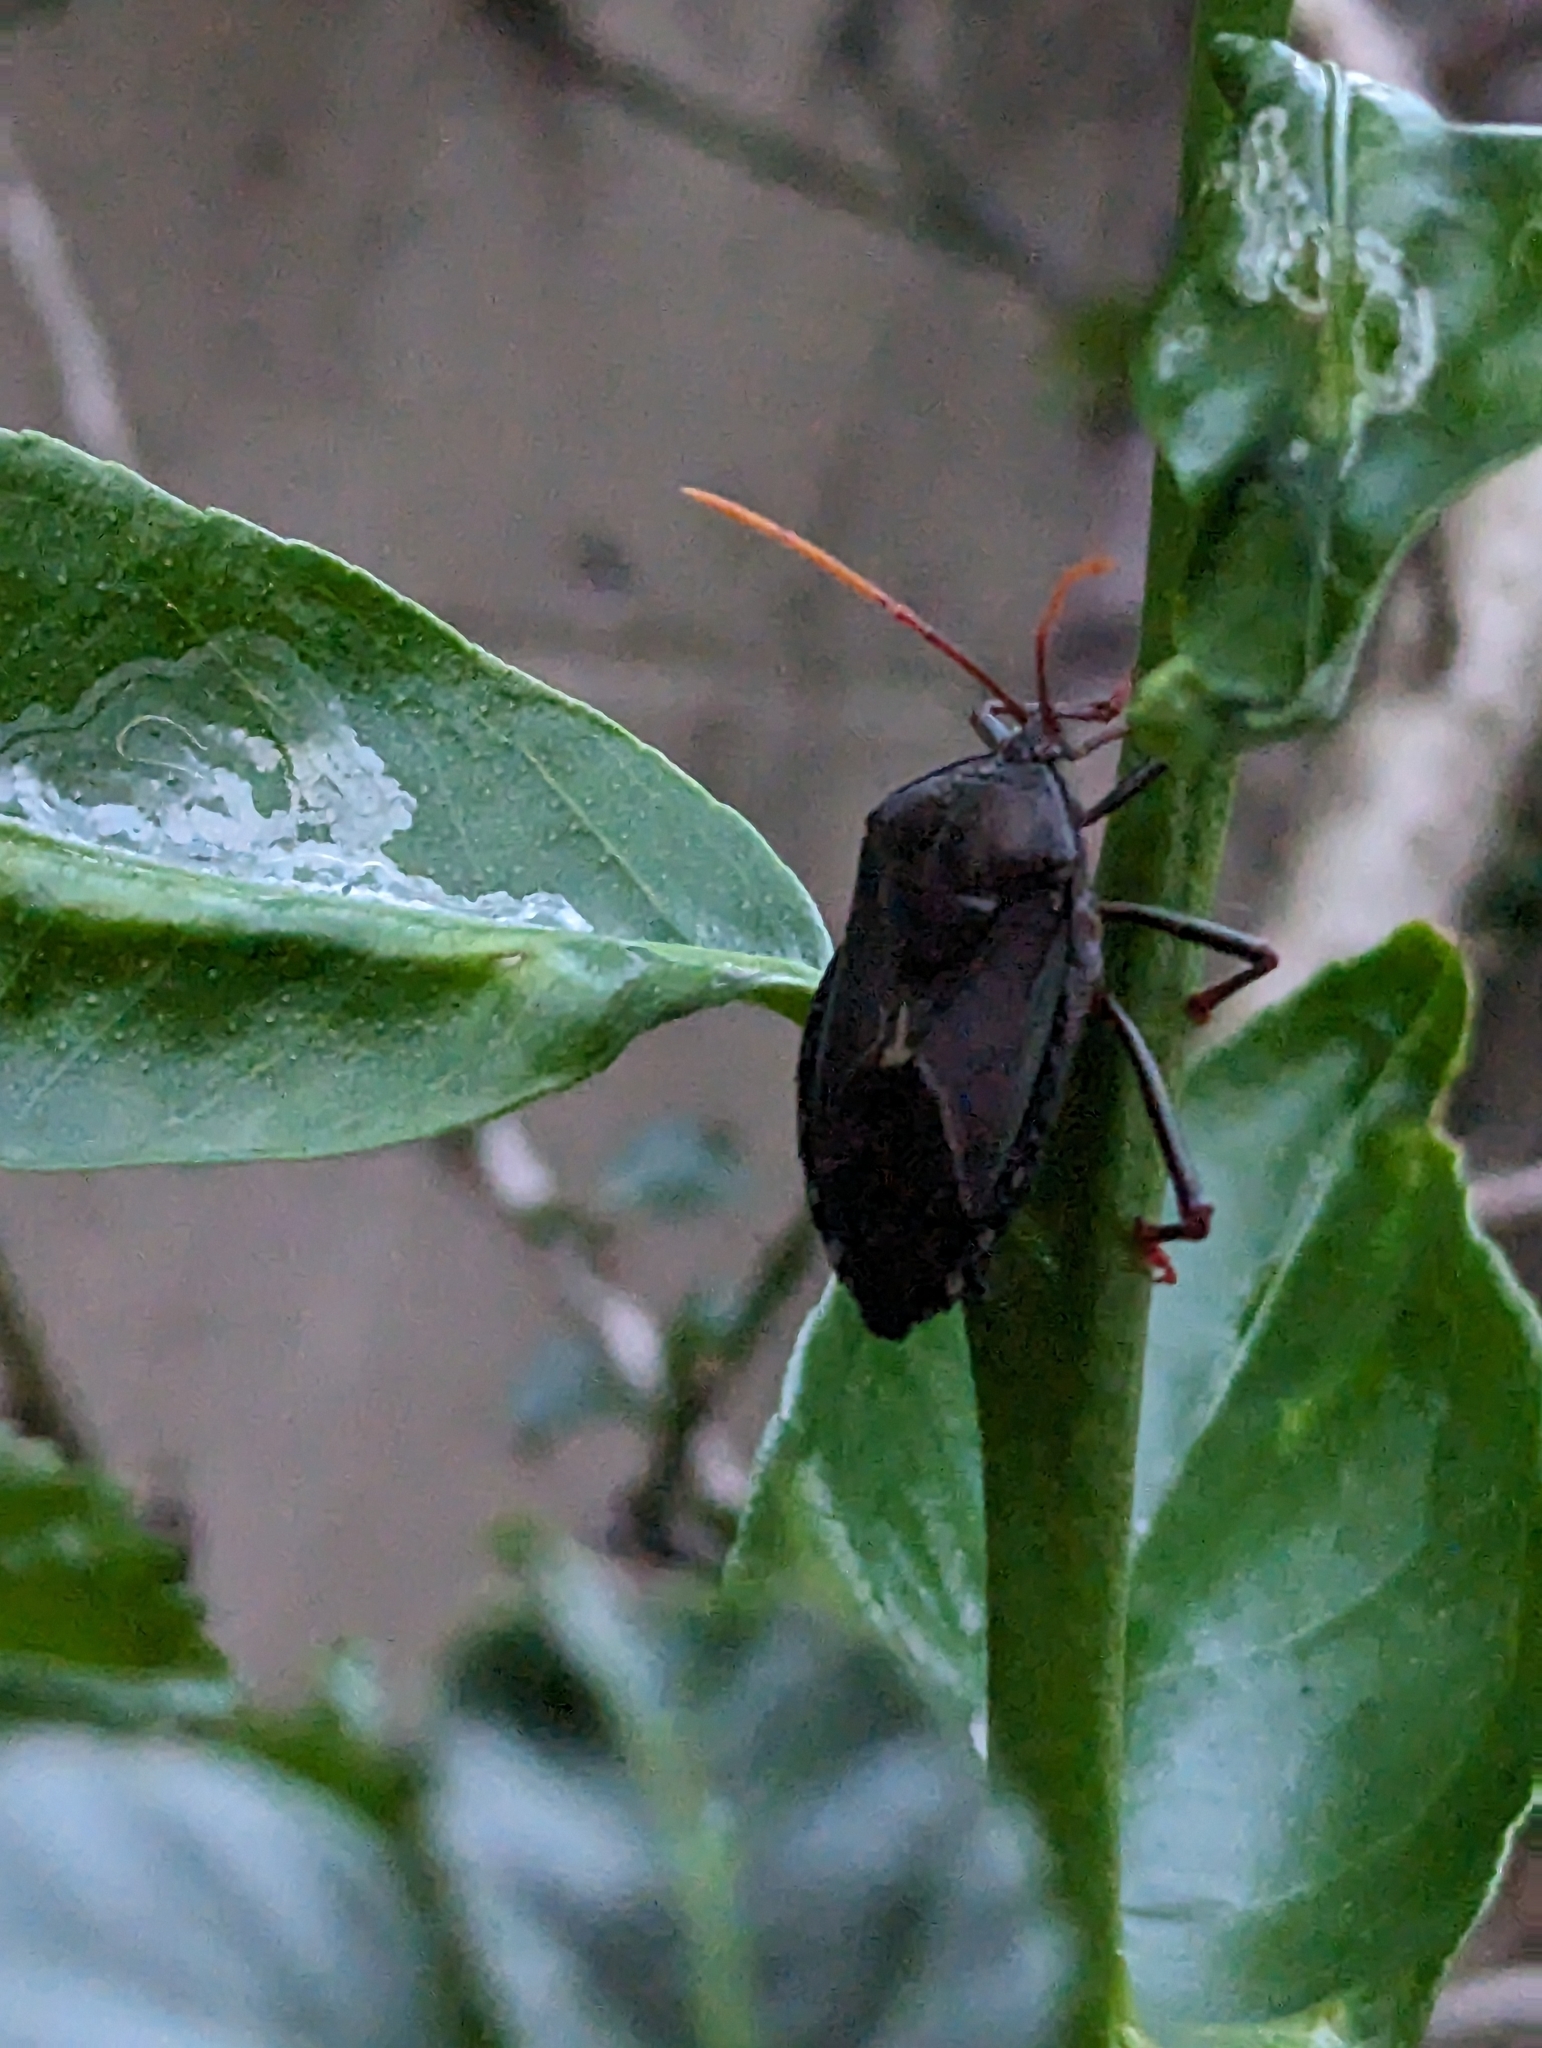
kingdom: Animalia
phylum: Arthropoda
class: Insecta
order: Hemiptera
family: Tessaratomidae
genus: Musgraveia
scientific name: Musgraveia sulciventris
